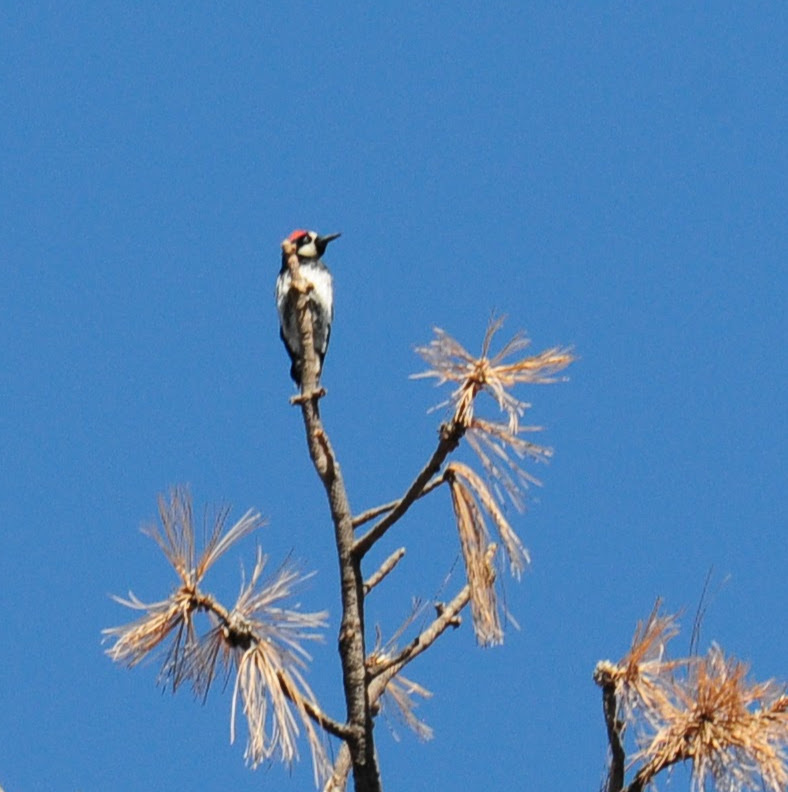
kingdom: Animalia
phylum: Chordata
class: Aves
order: Piciformes
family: Picidae
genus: Melanerpes
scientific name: Melanerpes formicivorus
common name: Acorn woodpecker
